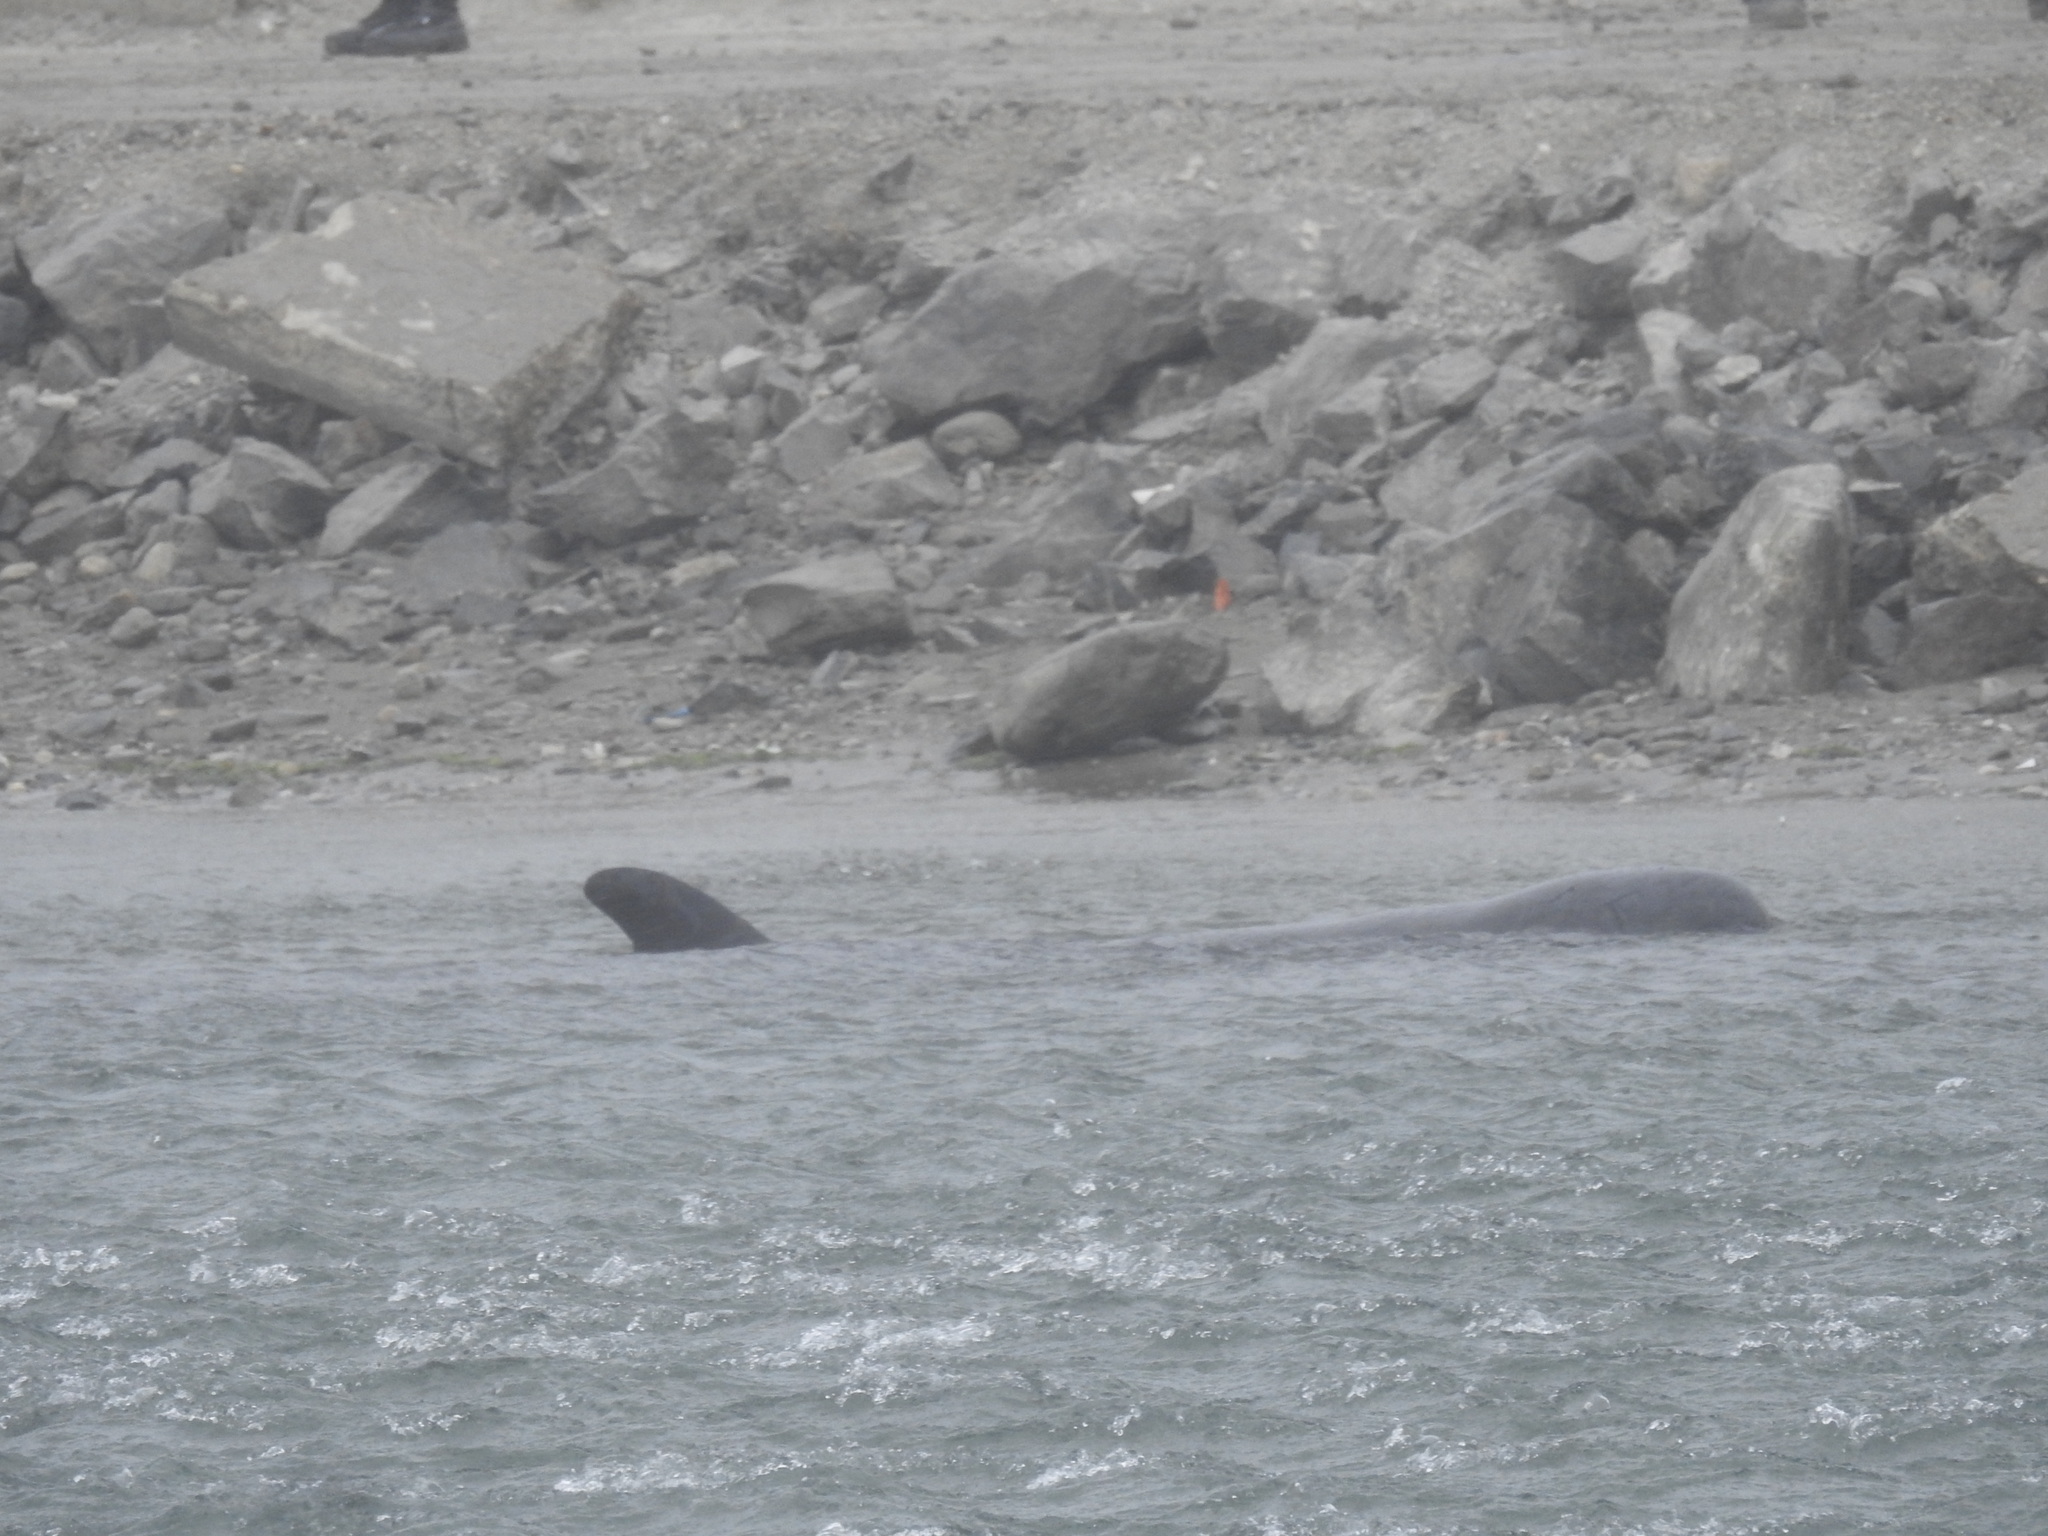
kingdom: Animalia
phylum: Chordata
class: Mammalia
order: Cetacea
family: Delphinidae
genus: Pseudorca
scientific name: Pseudorca crassidens
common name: False killer whale
